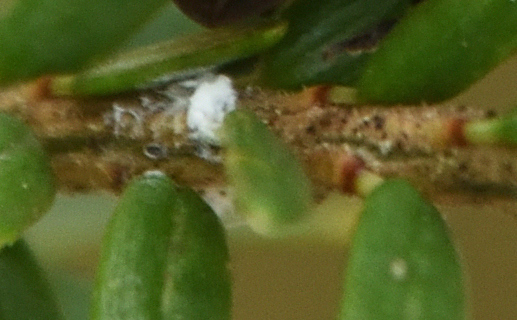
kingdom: Animalia
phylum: Arthropoda
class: Insecta
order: Hemiptera
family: Adelgidae
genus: Adelges
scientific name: Adelges tsugae
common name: Hemlock woolly adelgid
